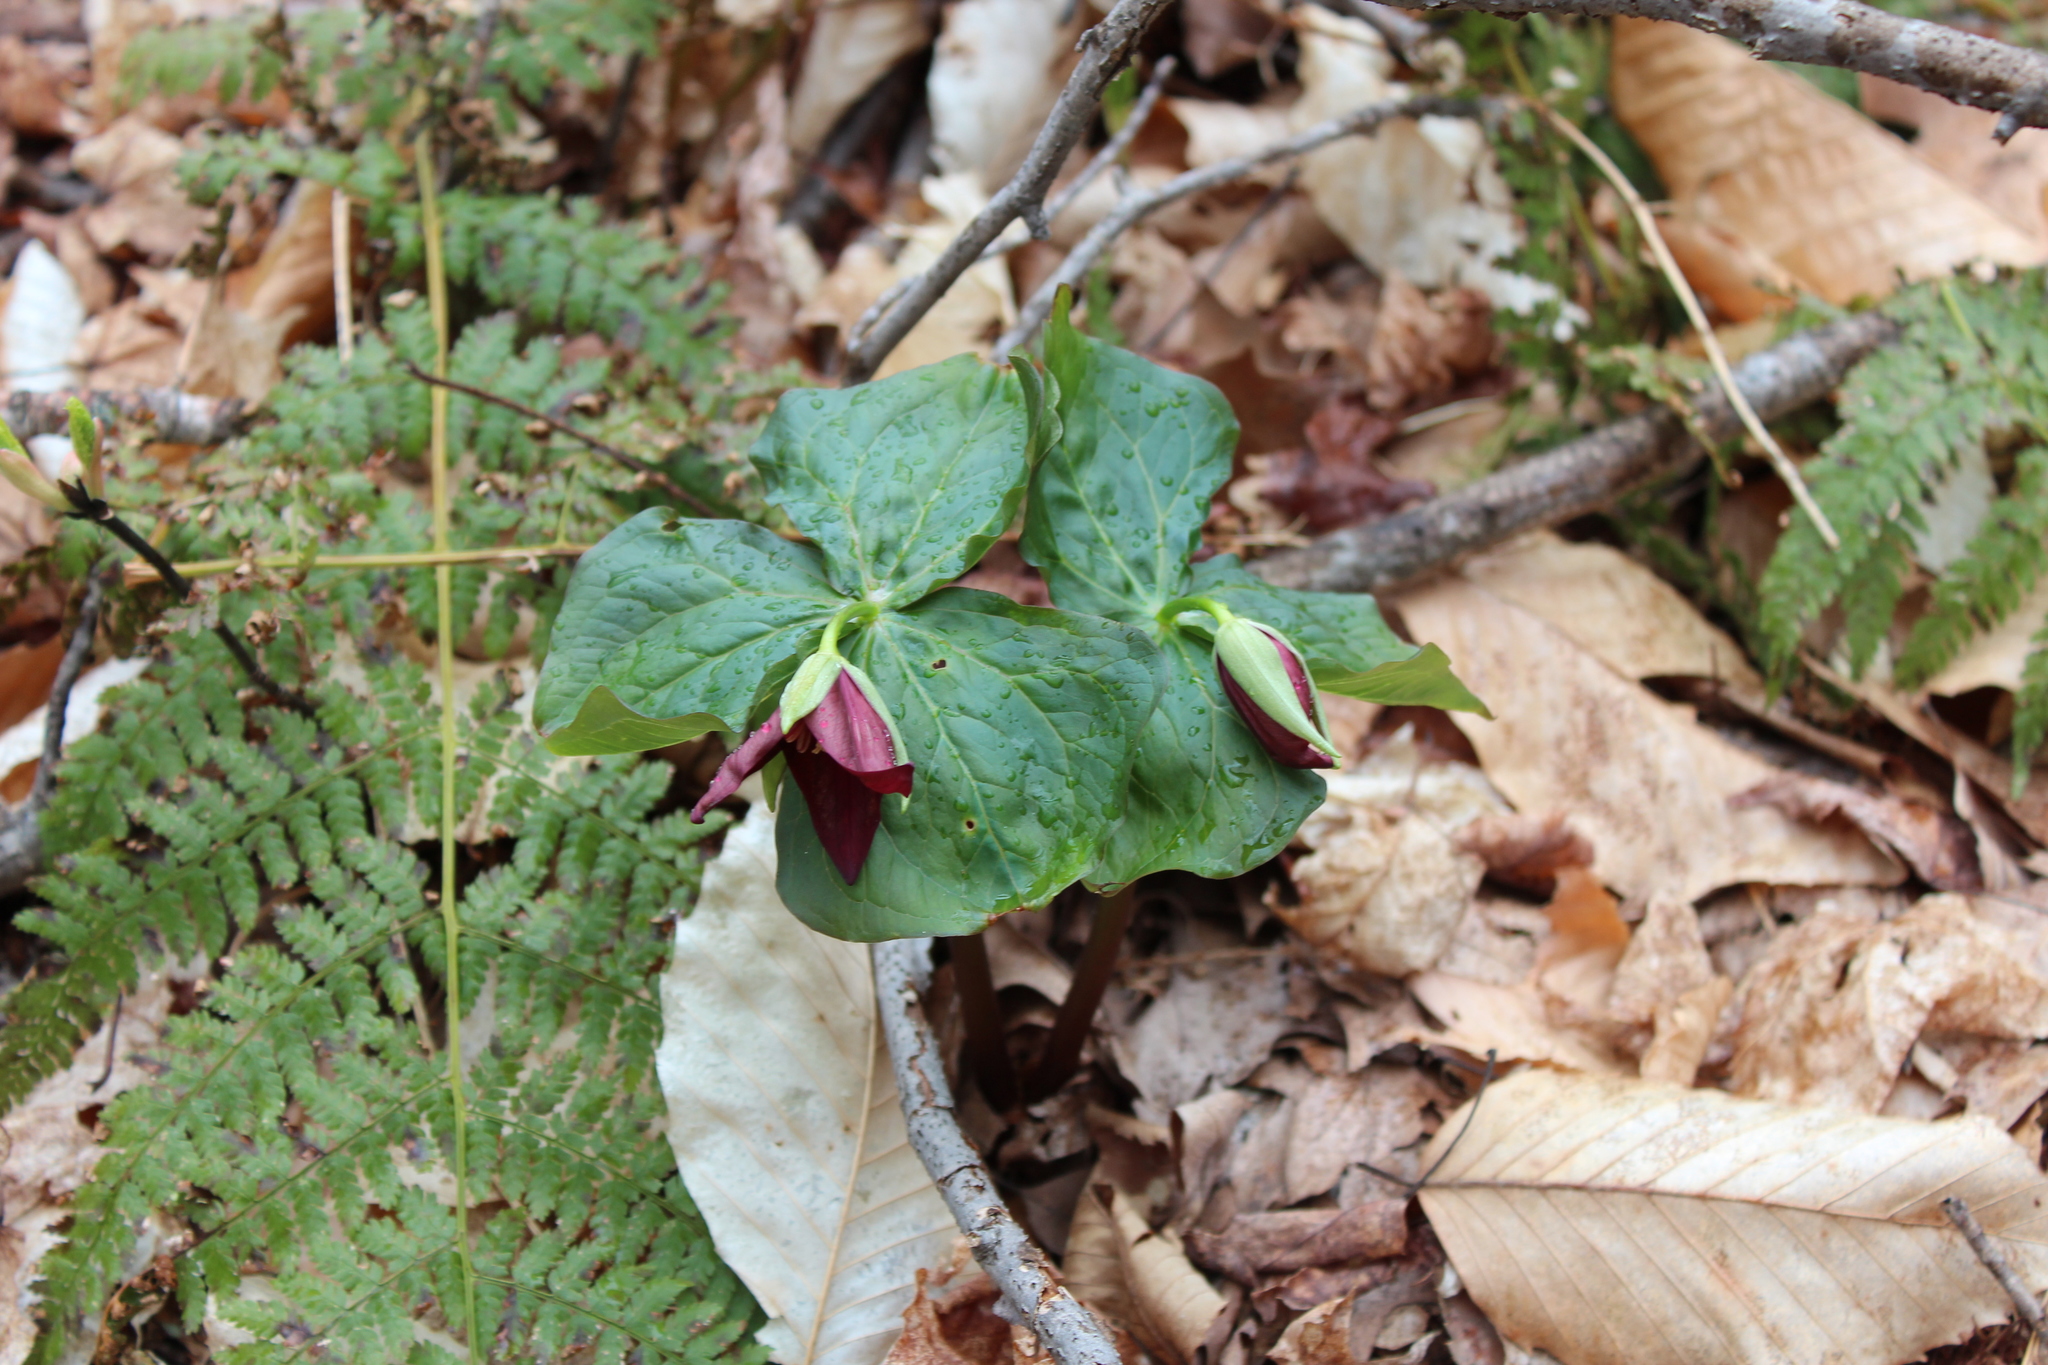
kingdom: Plantae
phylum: Tracheophyta
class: Liliopsida
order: Liliales
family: Melanthiaceae
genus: Trillium
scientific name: Trillium erectum
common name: Purple trillium
